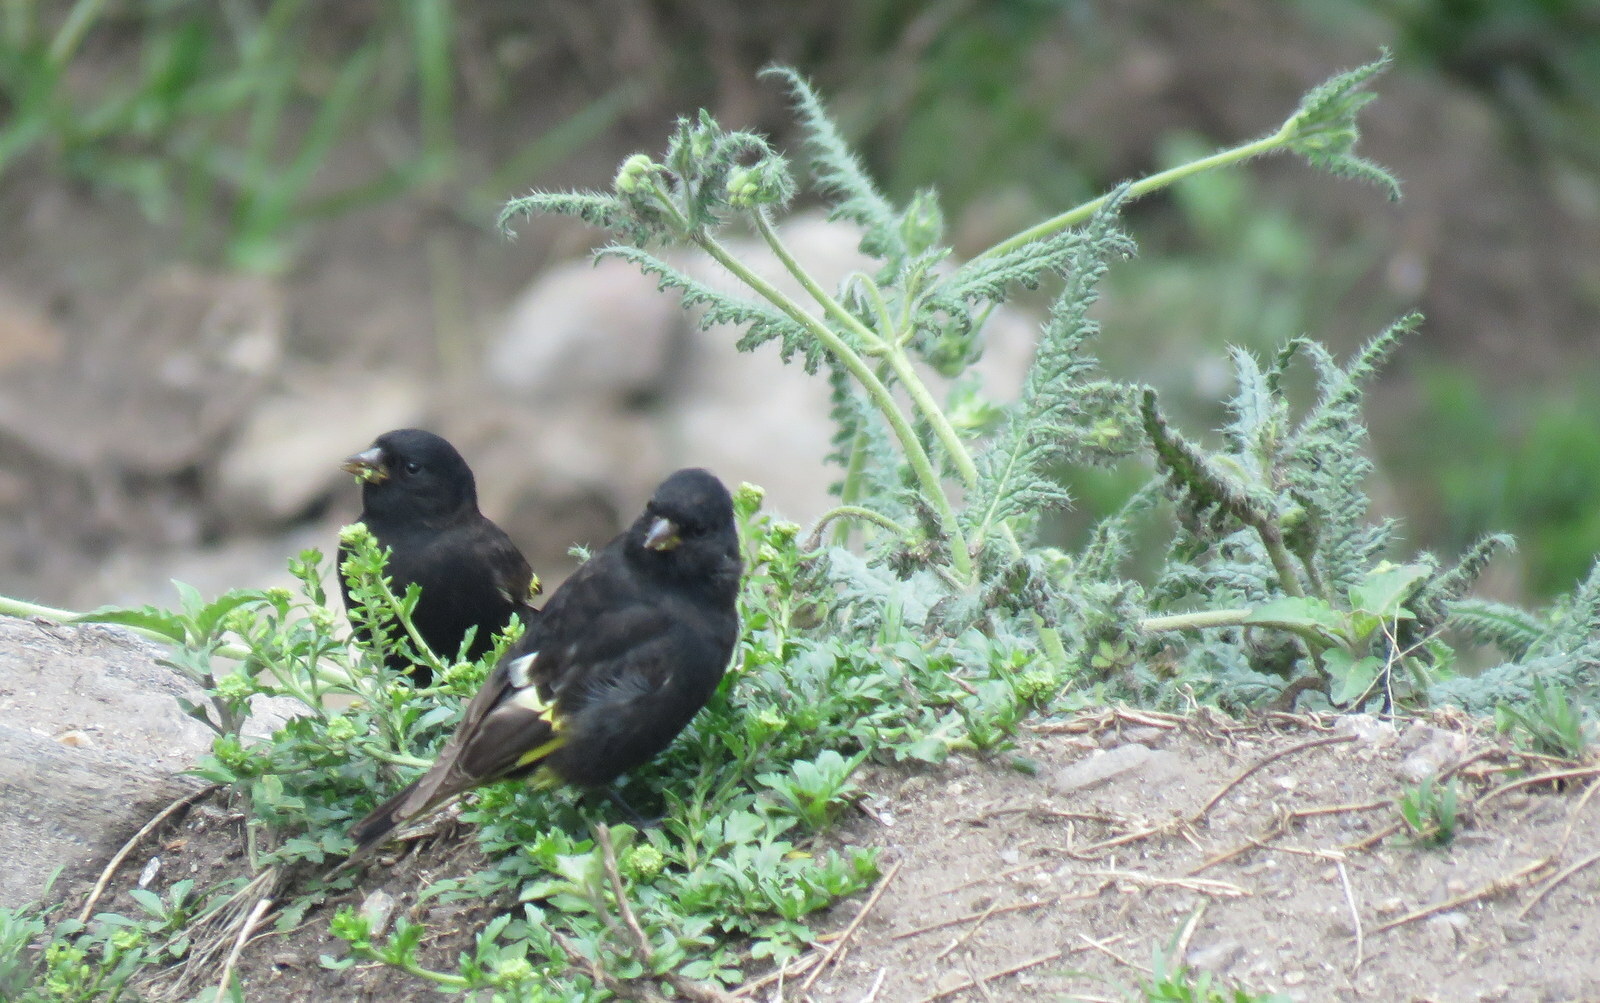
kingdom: Animalia
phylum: Chordata
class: Aves
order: Passeriformes
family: Fringillidae
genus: Spinus
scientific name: Spinus atratus
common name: Black siskin
